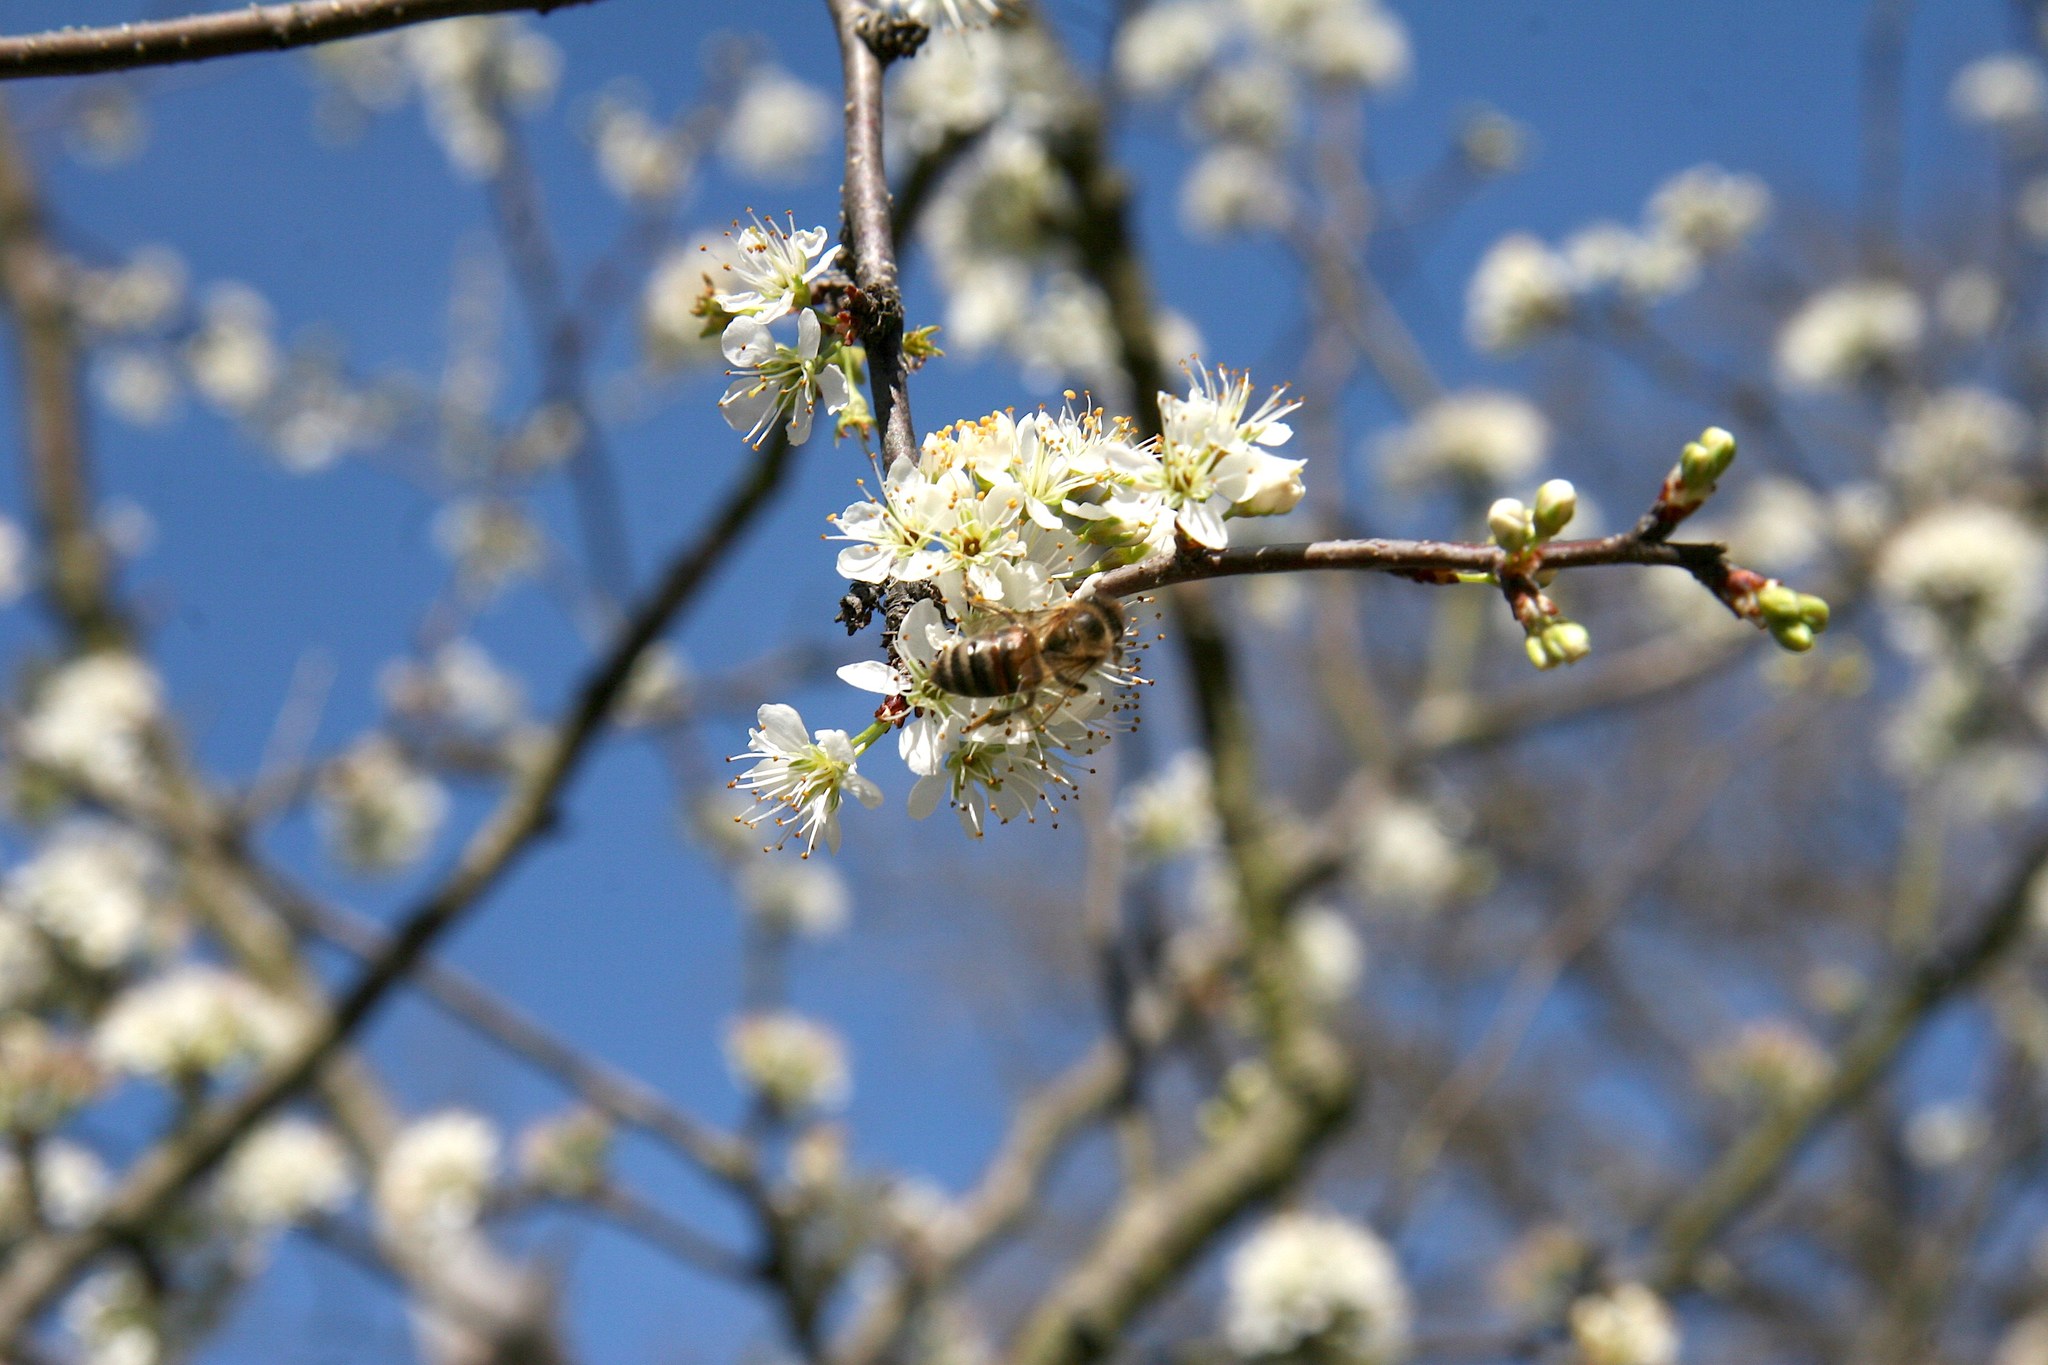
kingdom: Animalia
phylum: Arthropoda
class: Insecta
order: Hymenoptera
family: Apidae
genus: Apis
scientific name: Apis mellifera
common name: Honey bee
